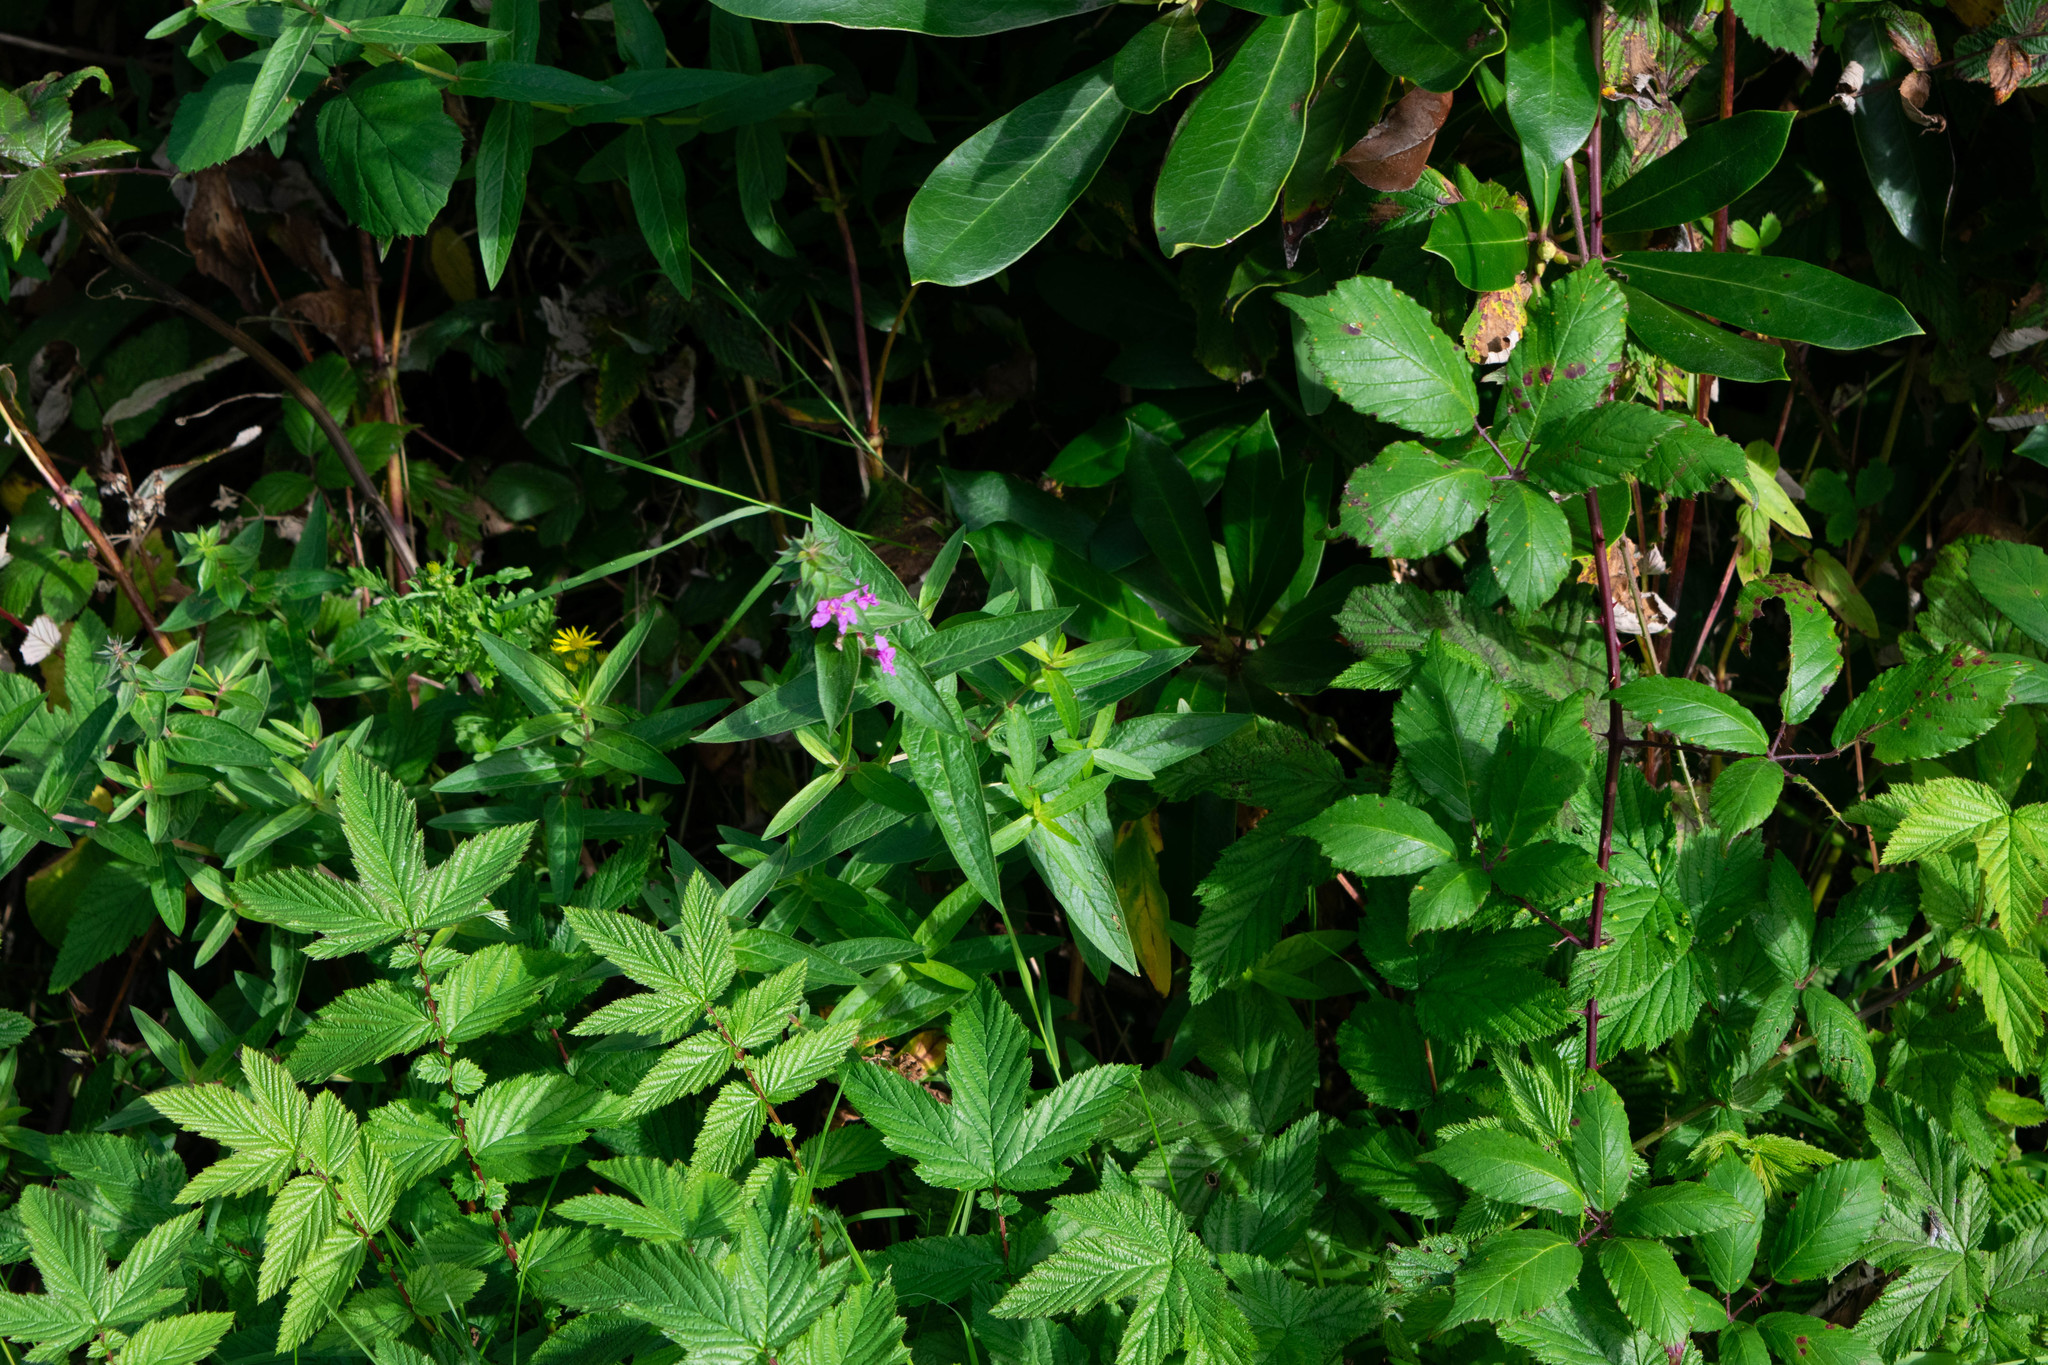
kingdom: Plantae
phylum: Tracheophyta
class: Magnoliopsida
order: Myrtales
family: Lythraceae
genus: Lythrum
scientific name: Lythrum salicaria
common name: Purple loosestrife
